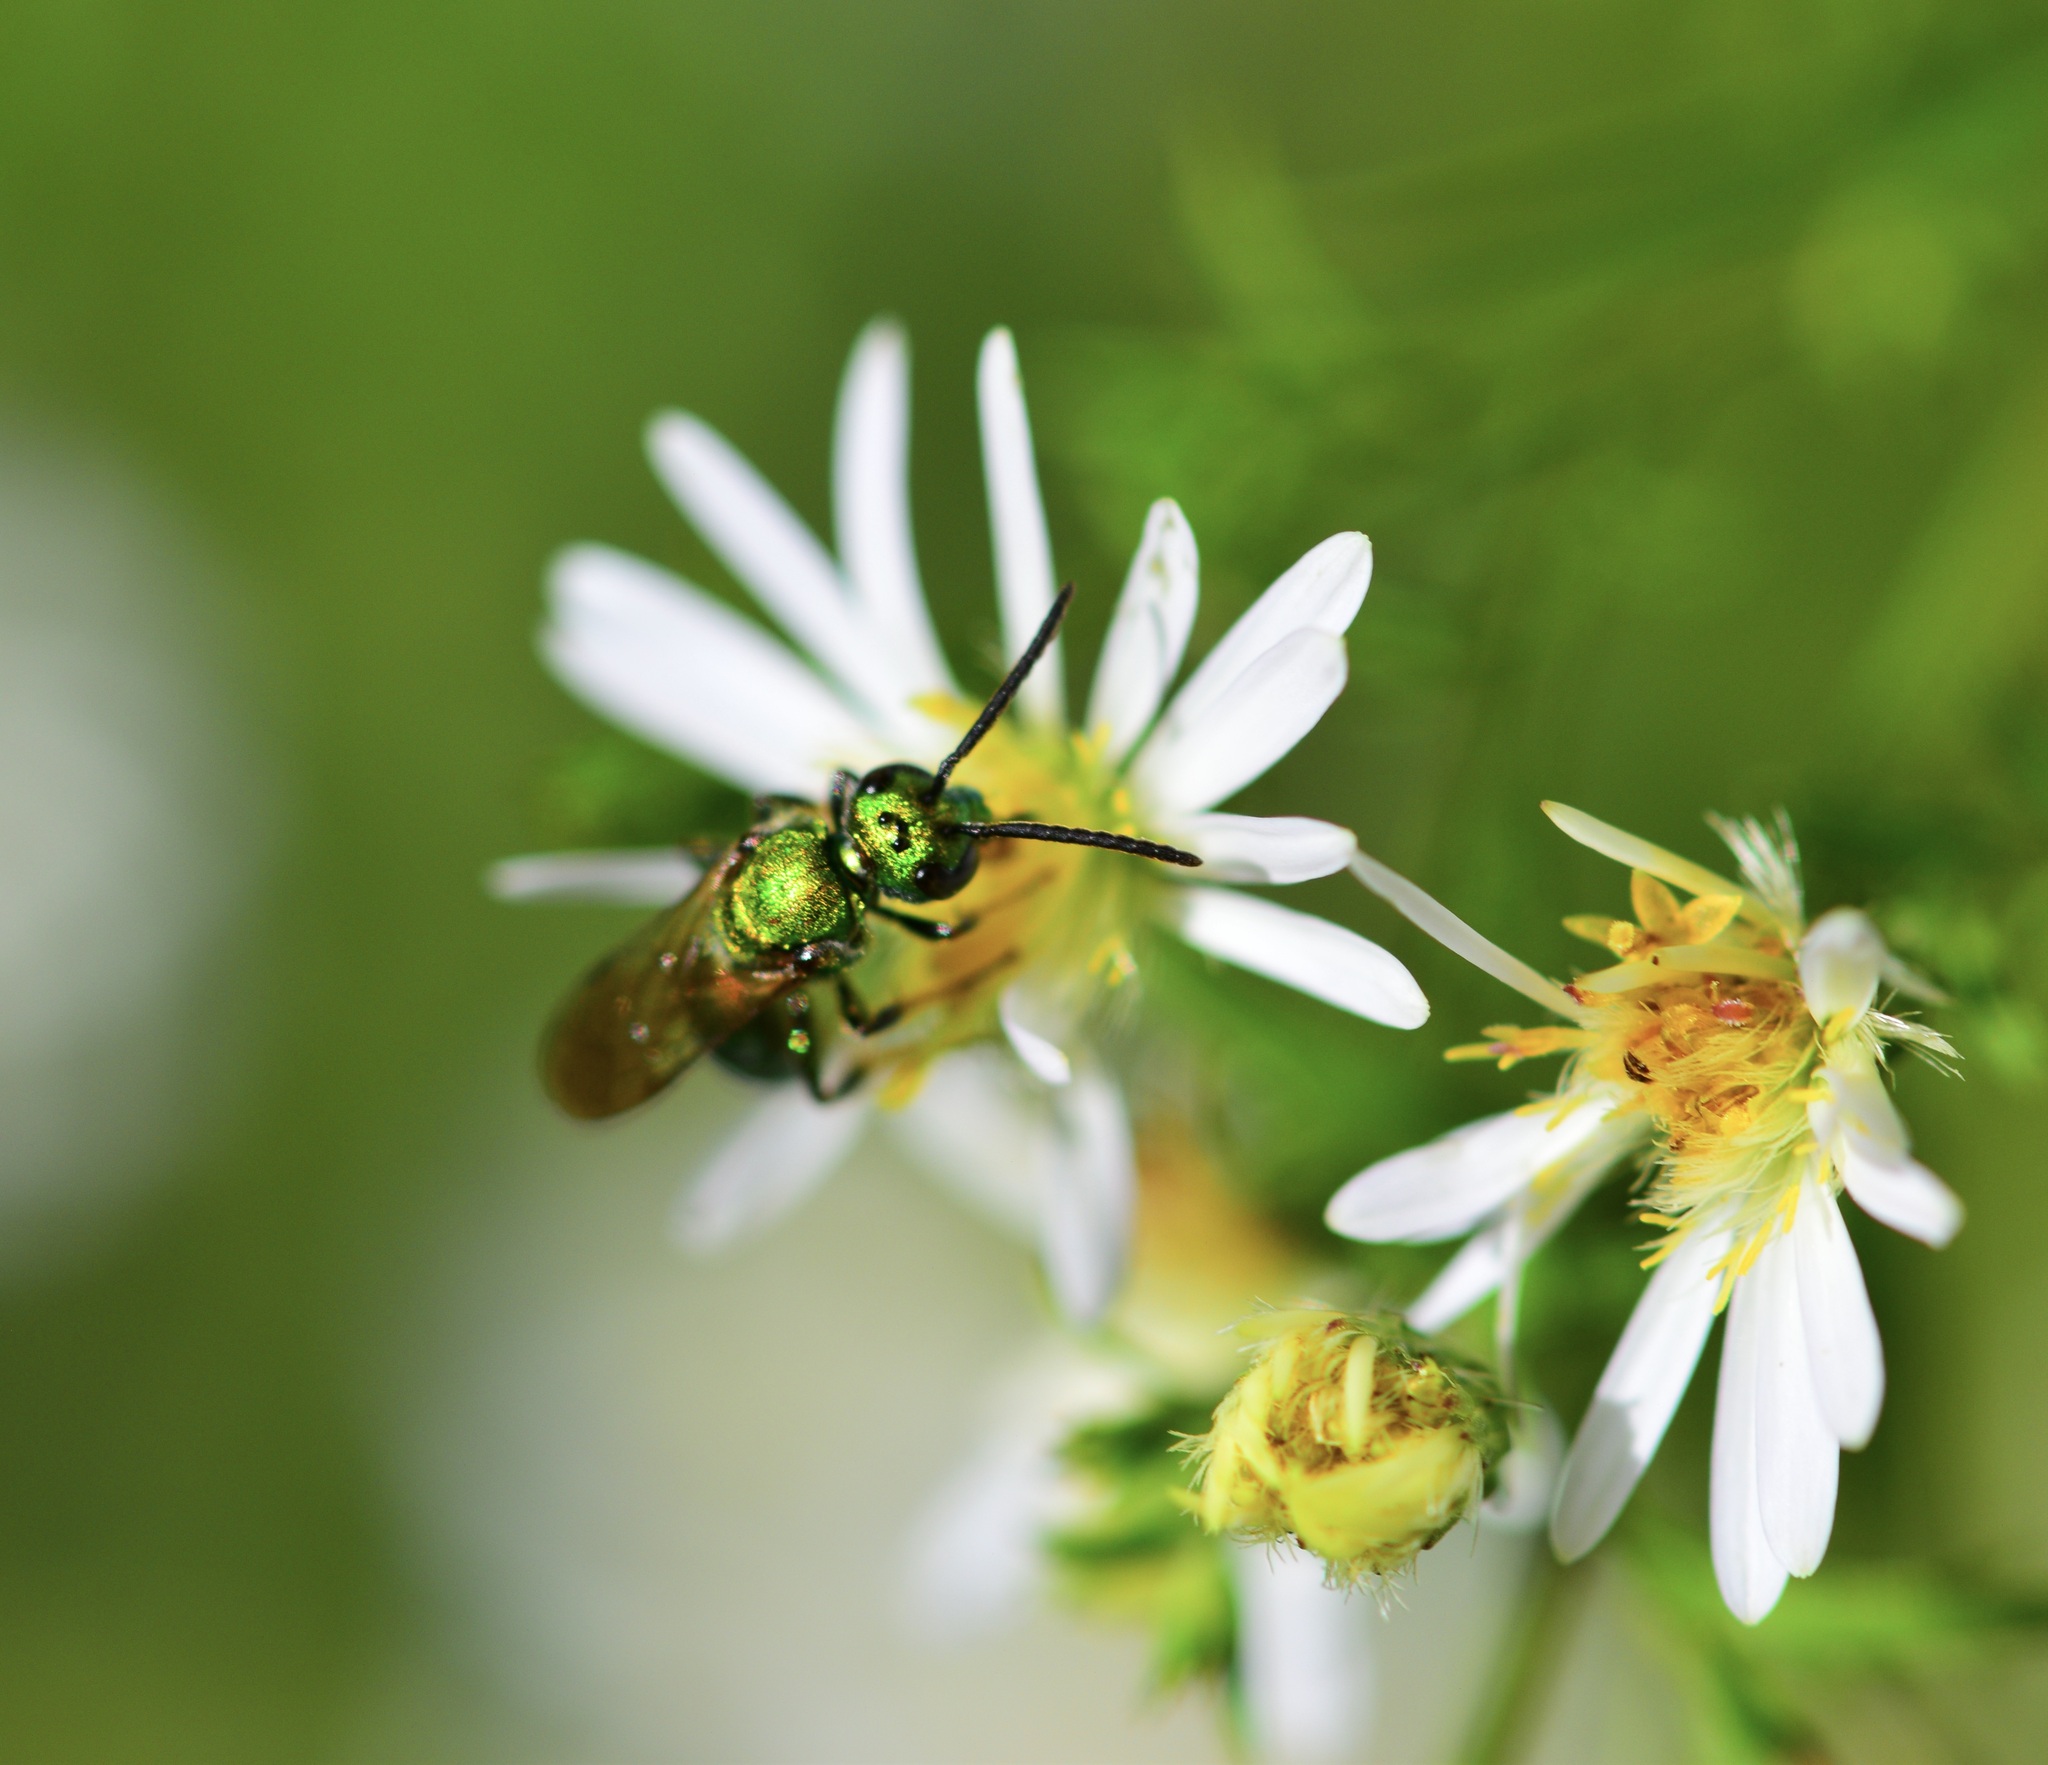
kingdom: Animalia
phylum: Arthropoda
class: Insecta
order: Hymenoptera
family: Halictidae
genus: Augochlora
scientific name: Augochlora pura
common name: Pure green sweat bee
